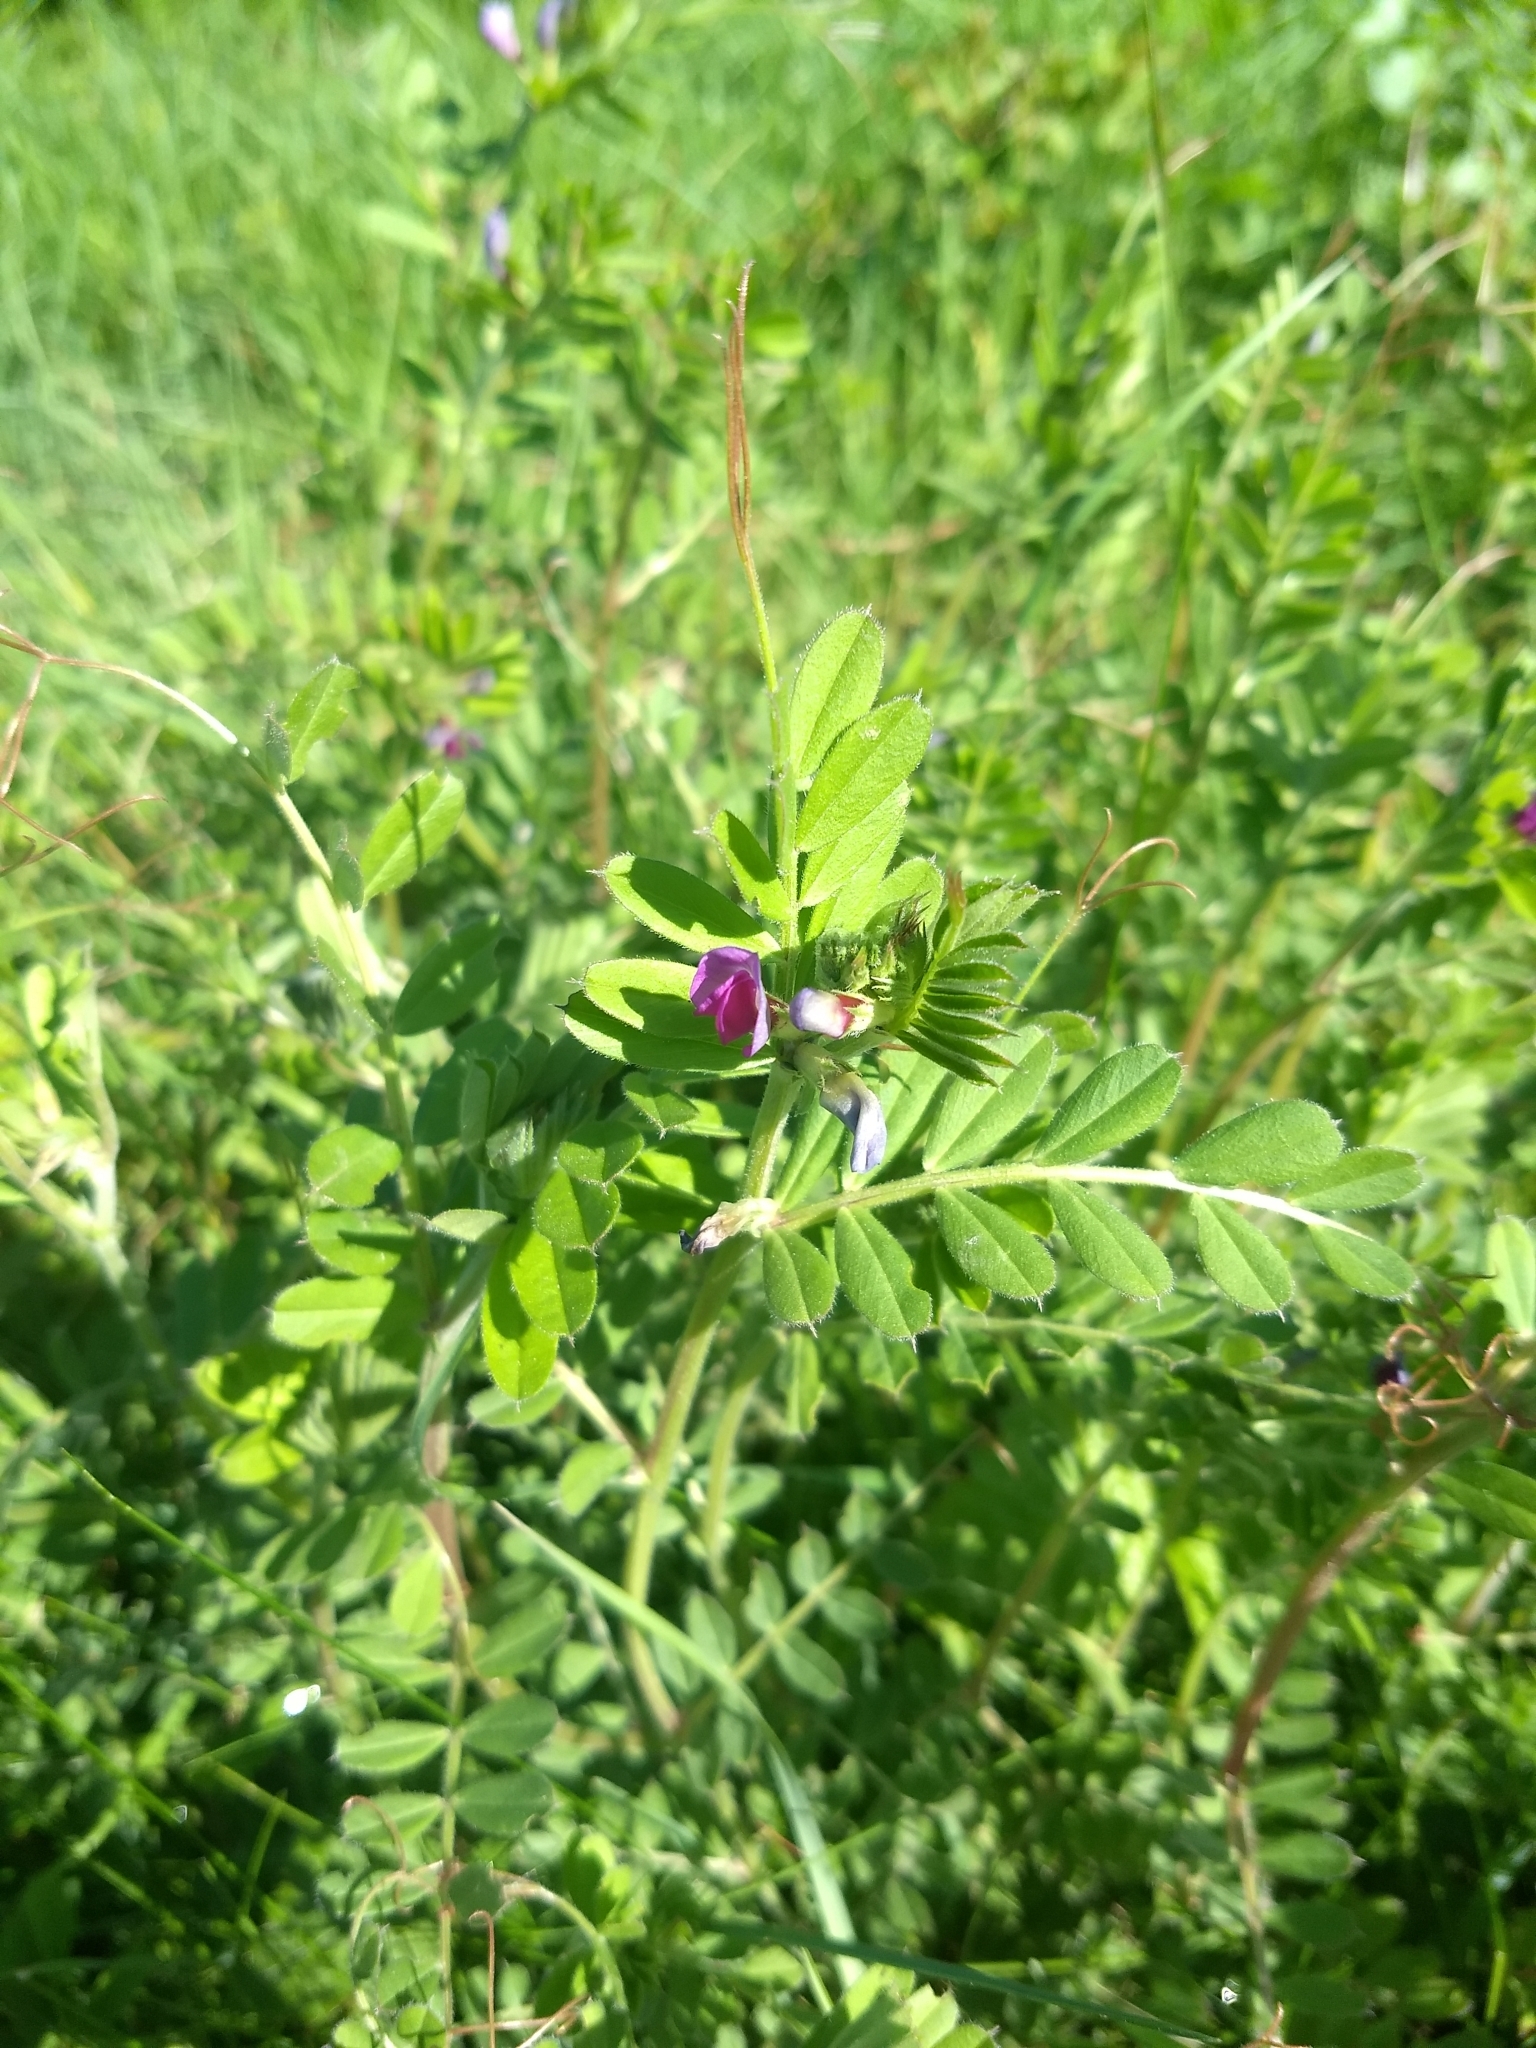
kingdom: Plantae
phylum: Tracheophyta
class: Magnoliopsida
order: Fabales
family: Fabaceae
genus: Vicia
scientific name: Vicia sativa
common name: Garden vetch
